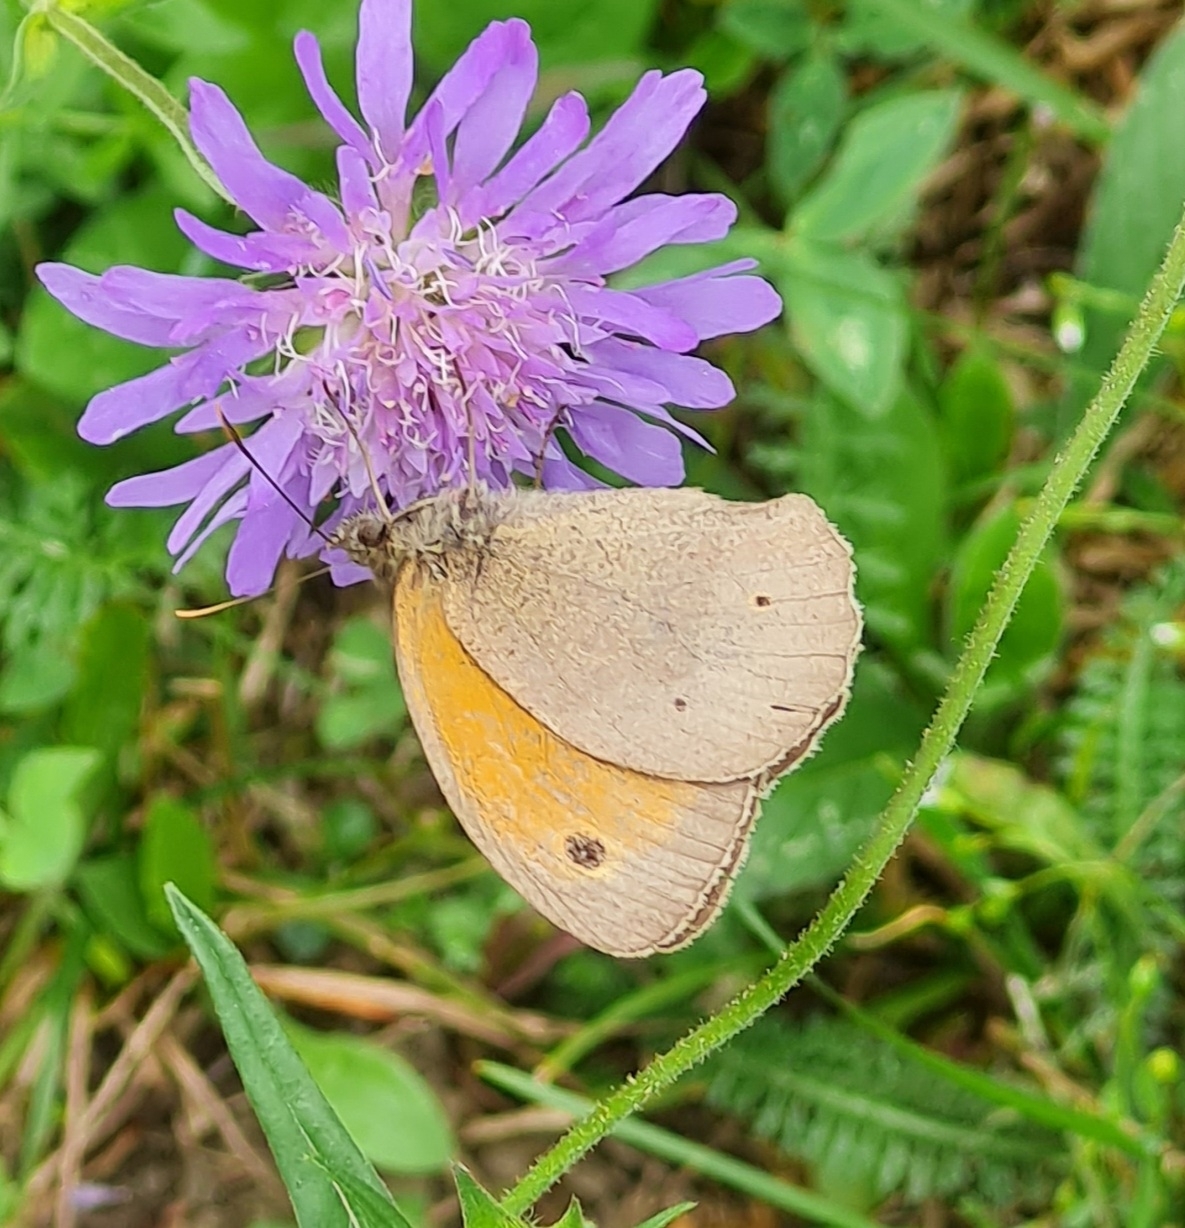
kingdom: Animalia
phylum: Arthropoda
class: Insecta
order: Lepidoptera
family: Nymphalidae
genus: Maniola
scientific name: Maniola jurtina
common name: Meadow brown
